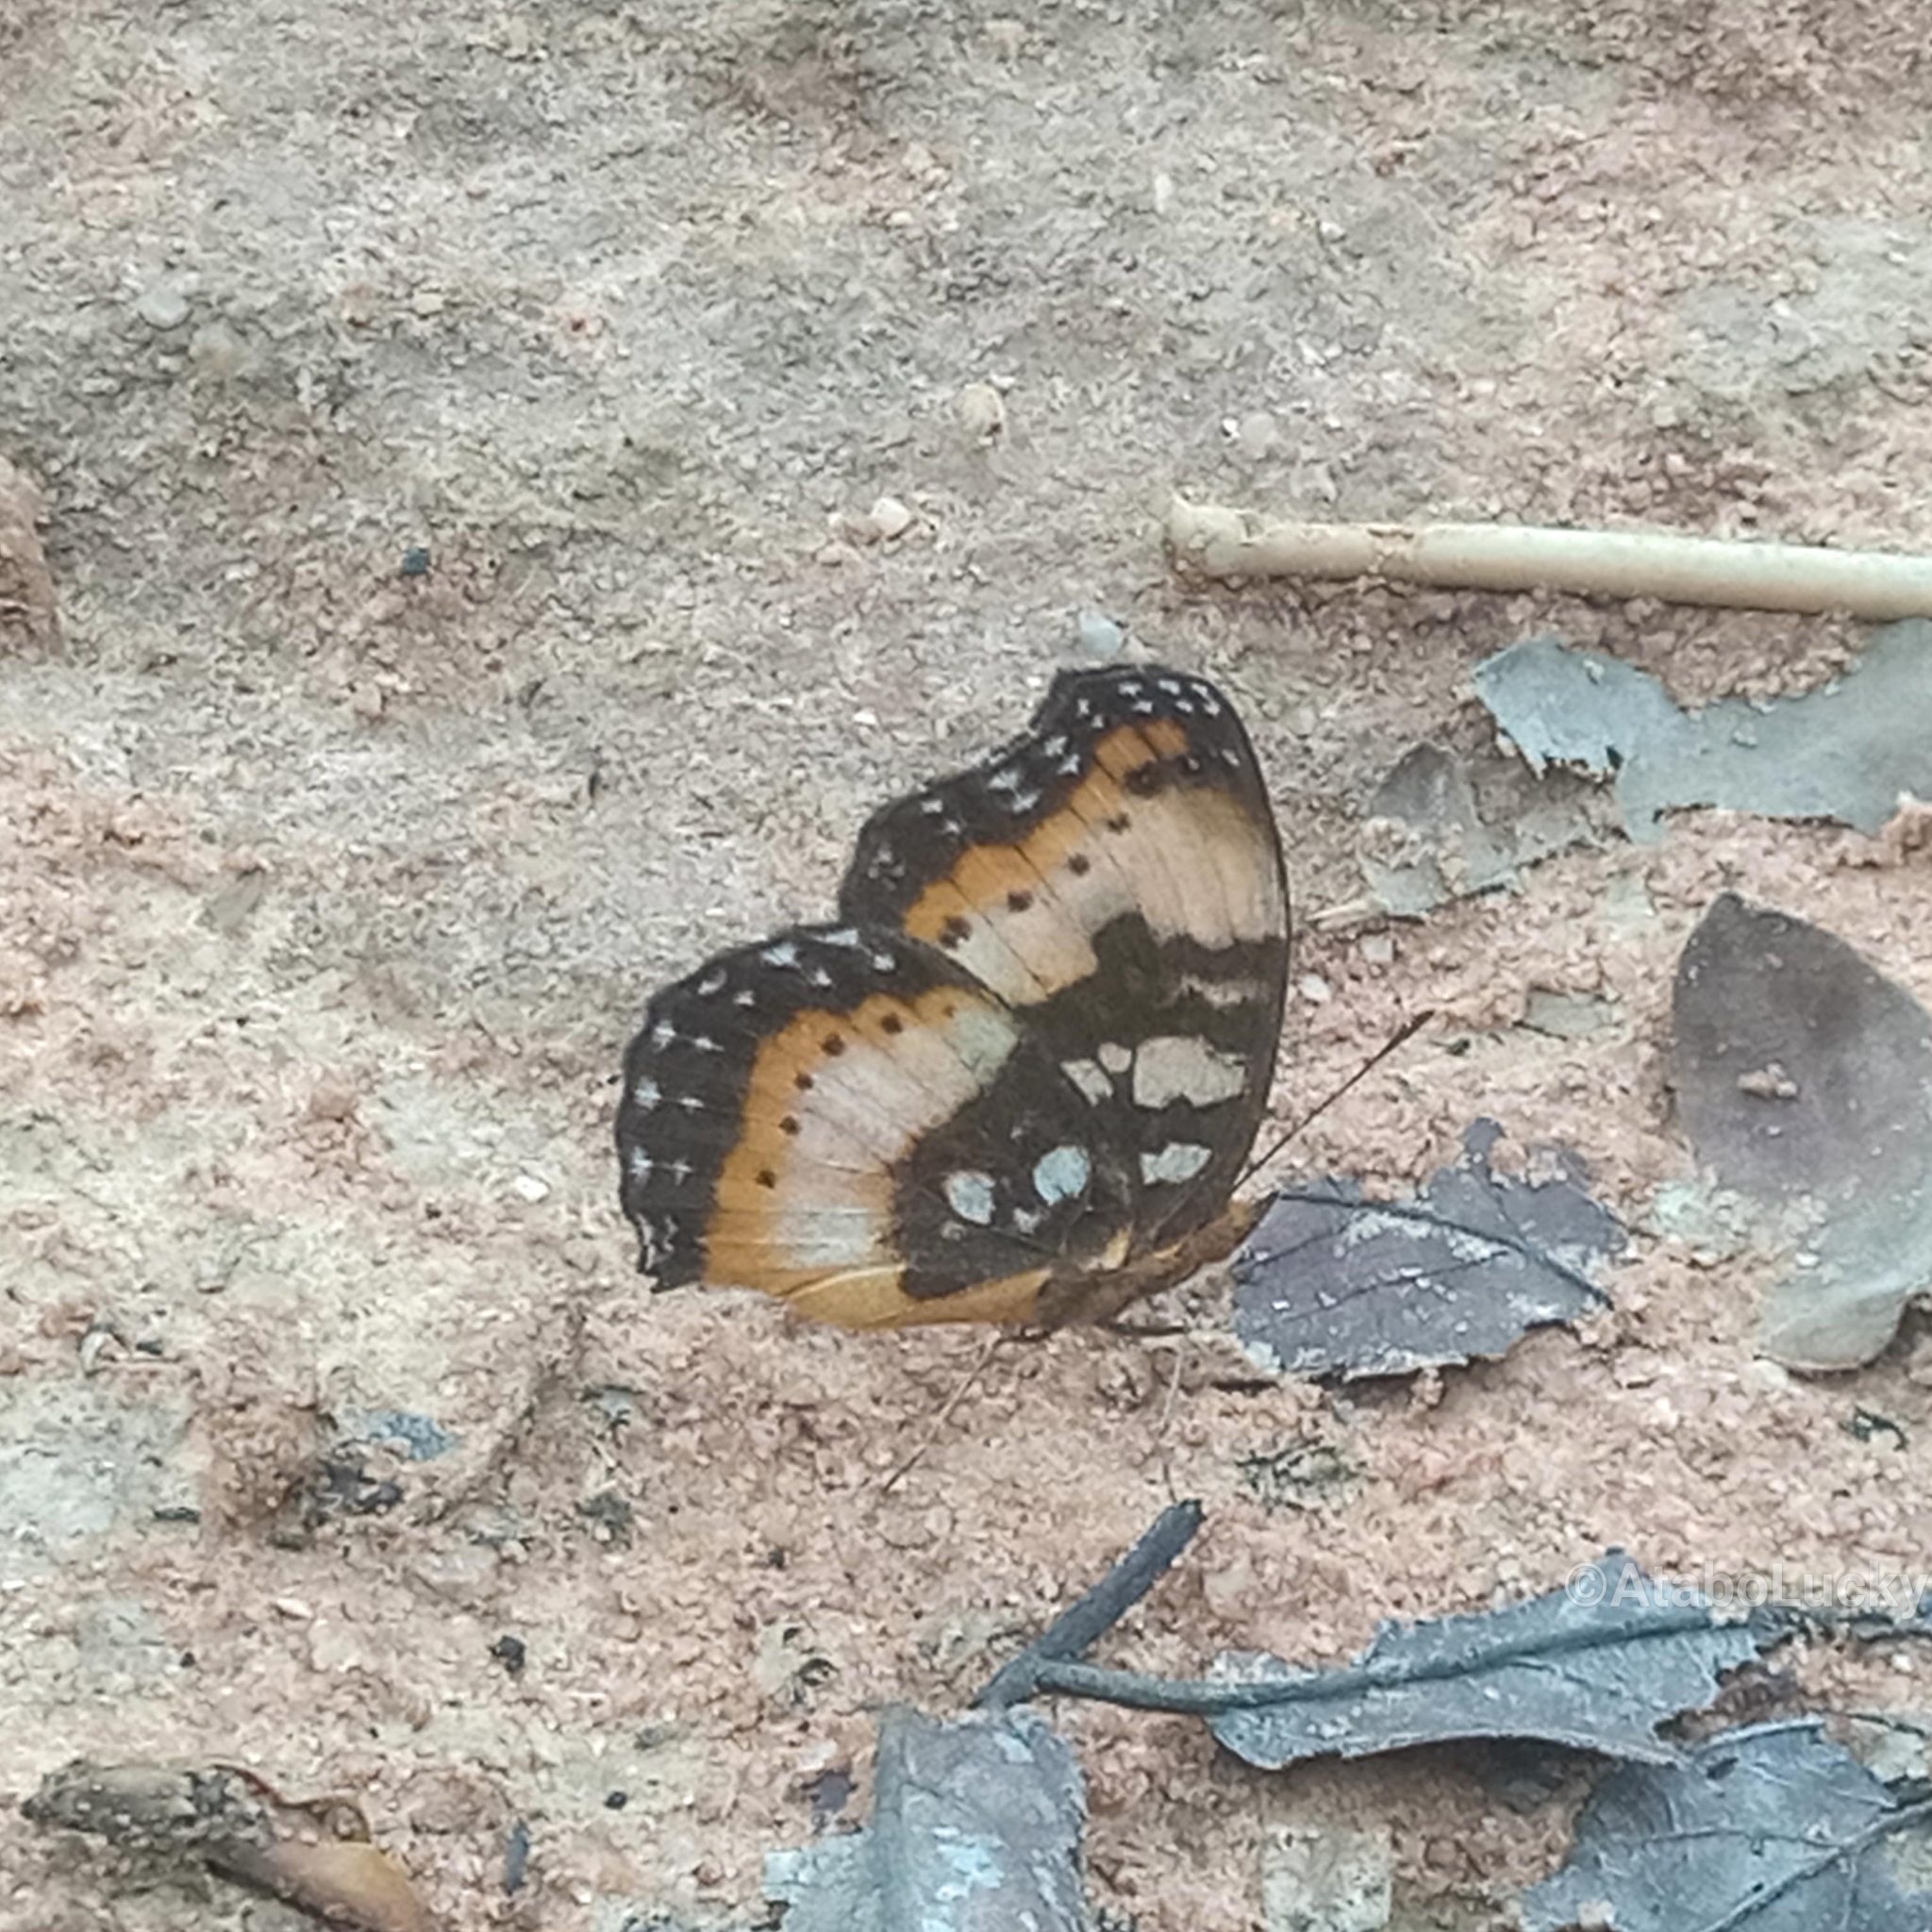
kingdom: Animalia
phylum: Arthropoda
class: Insecta
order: Lepidoptera
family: Nymphalidae
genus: Junonia
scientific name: Junonia antilope
